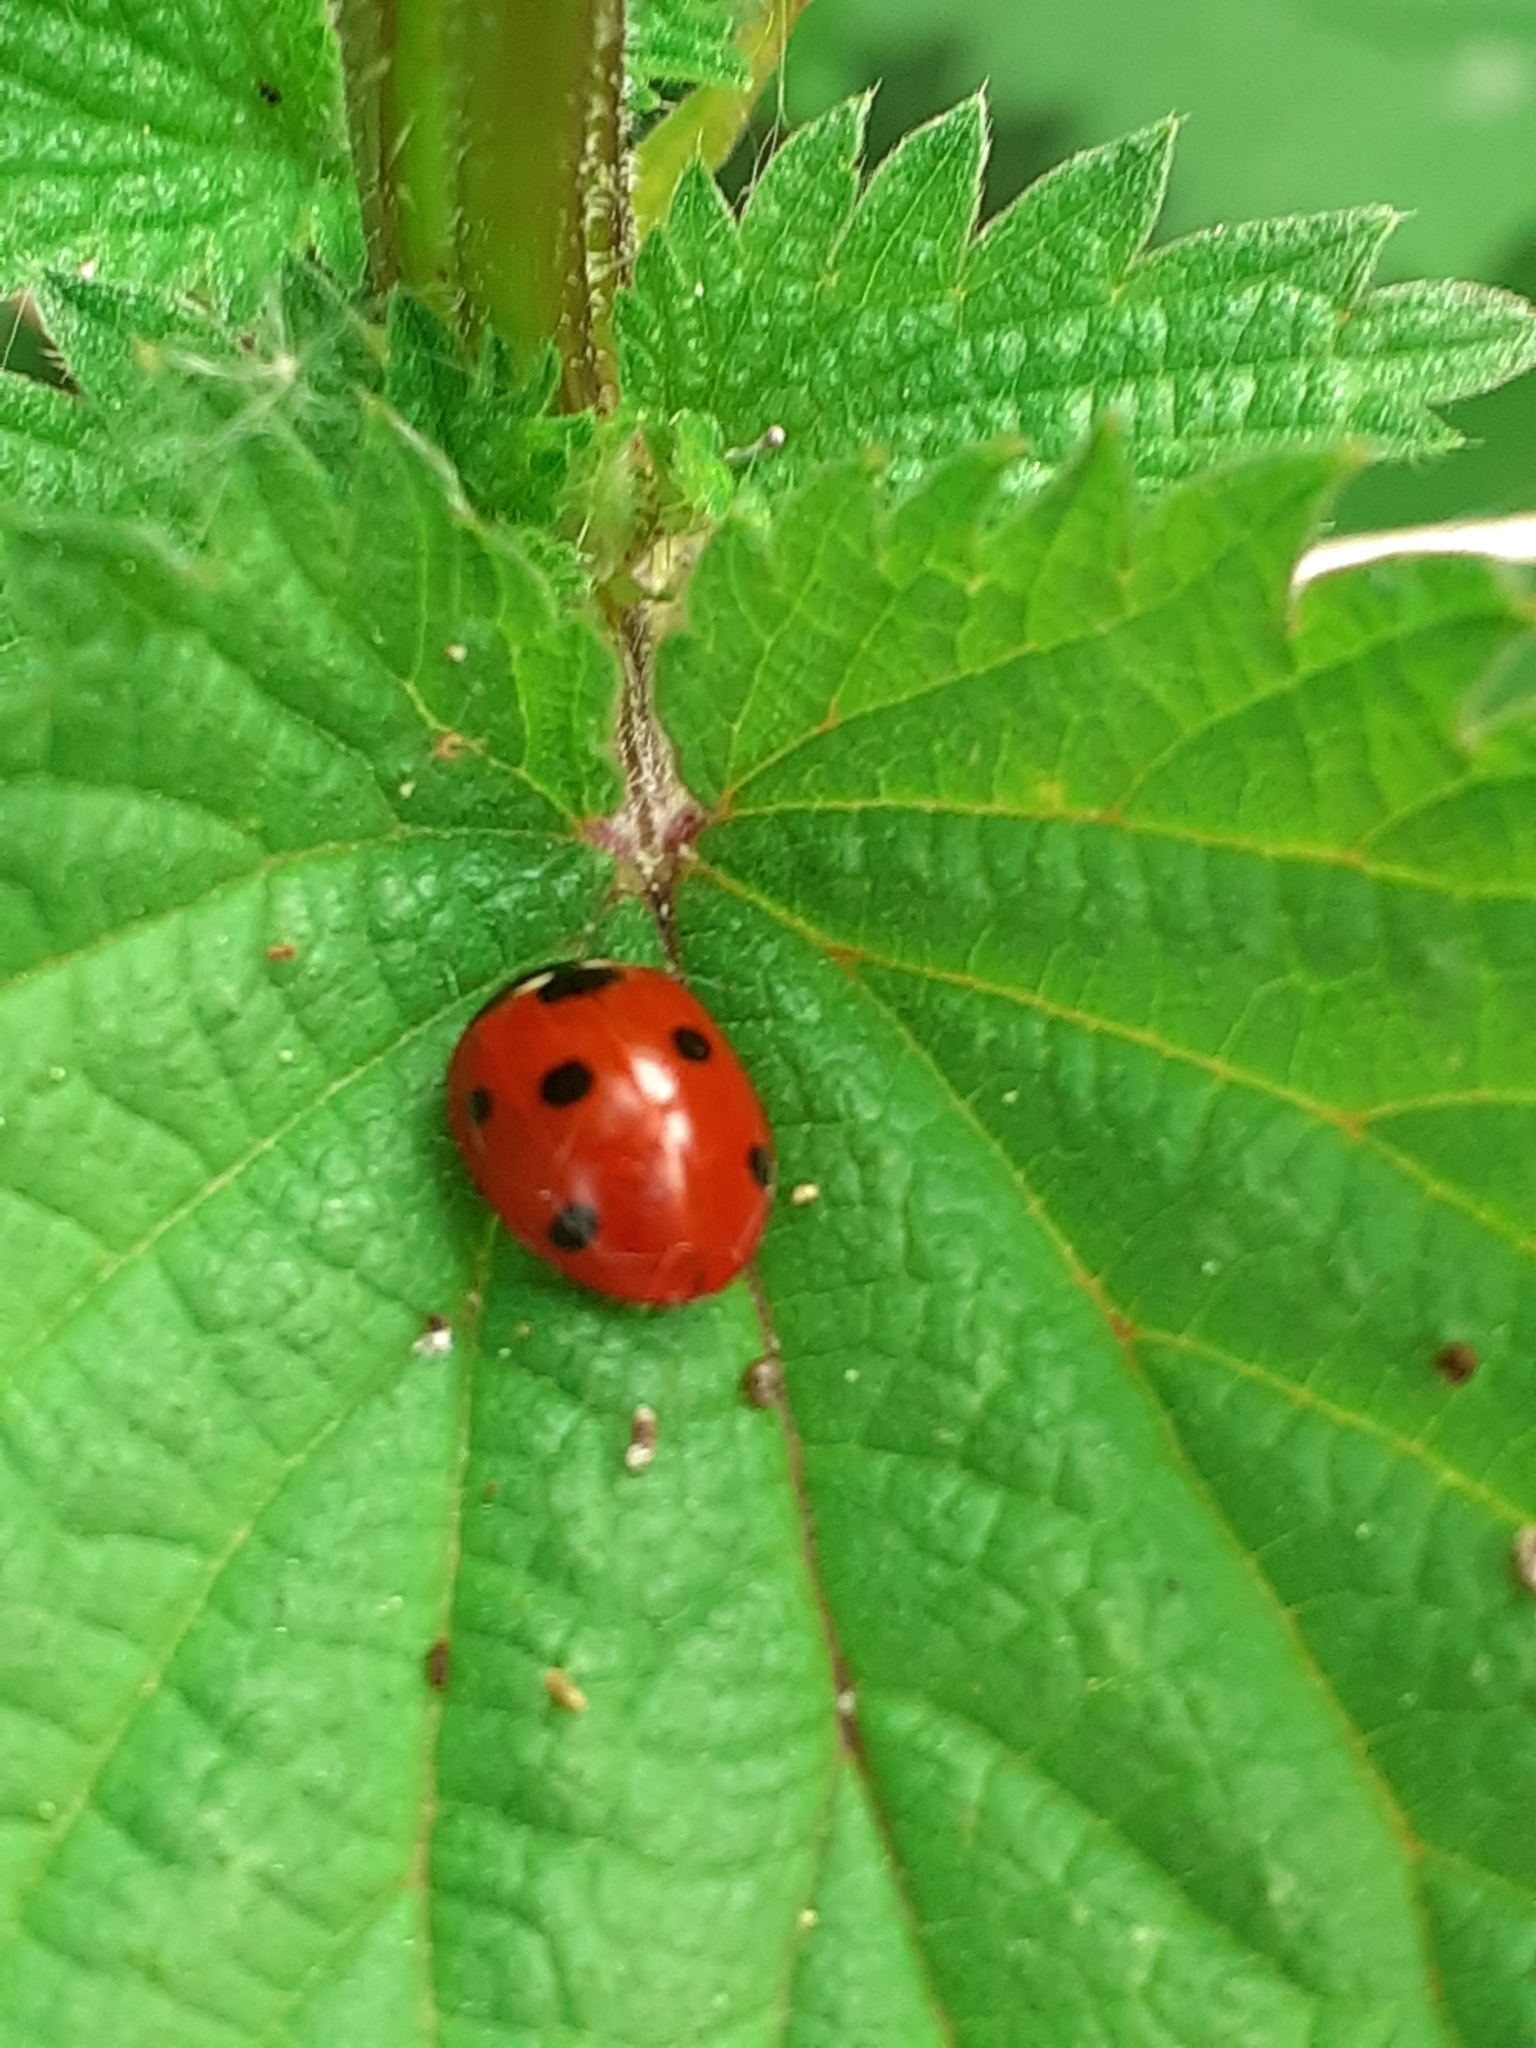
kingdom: Animalia
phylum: Arthropoda
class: Insecta
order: Coleoptera
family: Coccinellidae
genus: Coccinella
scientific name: Coccinella septempunctata
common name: Sevenspotted lady beetle
